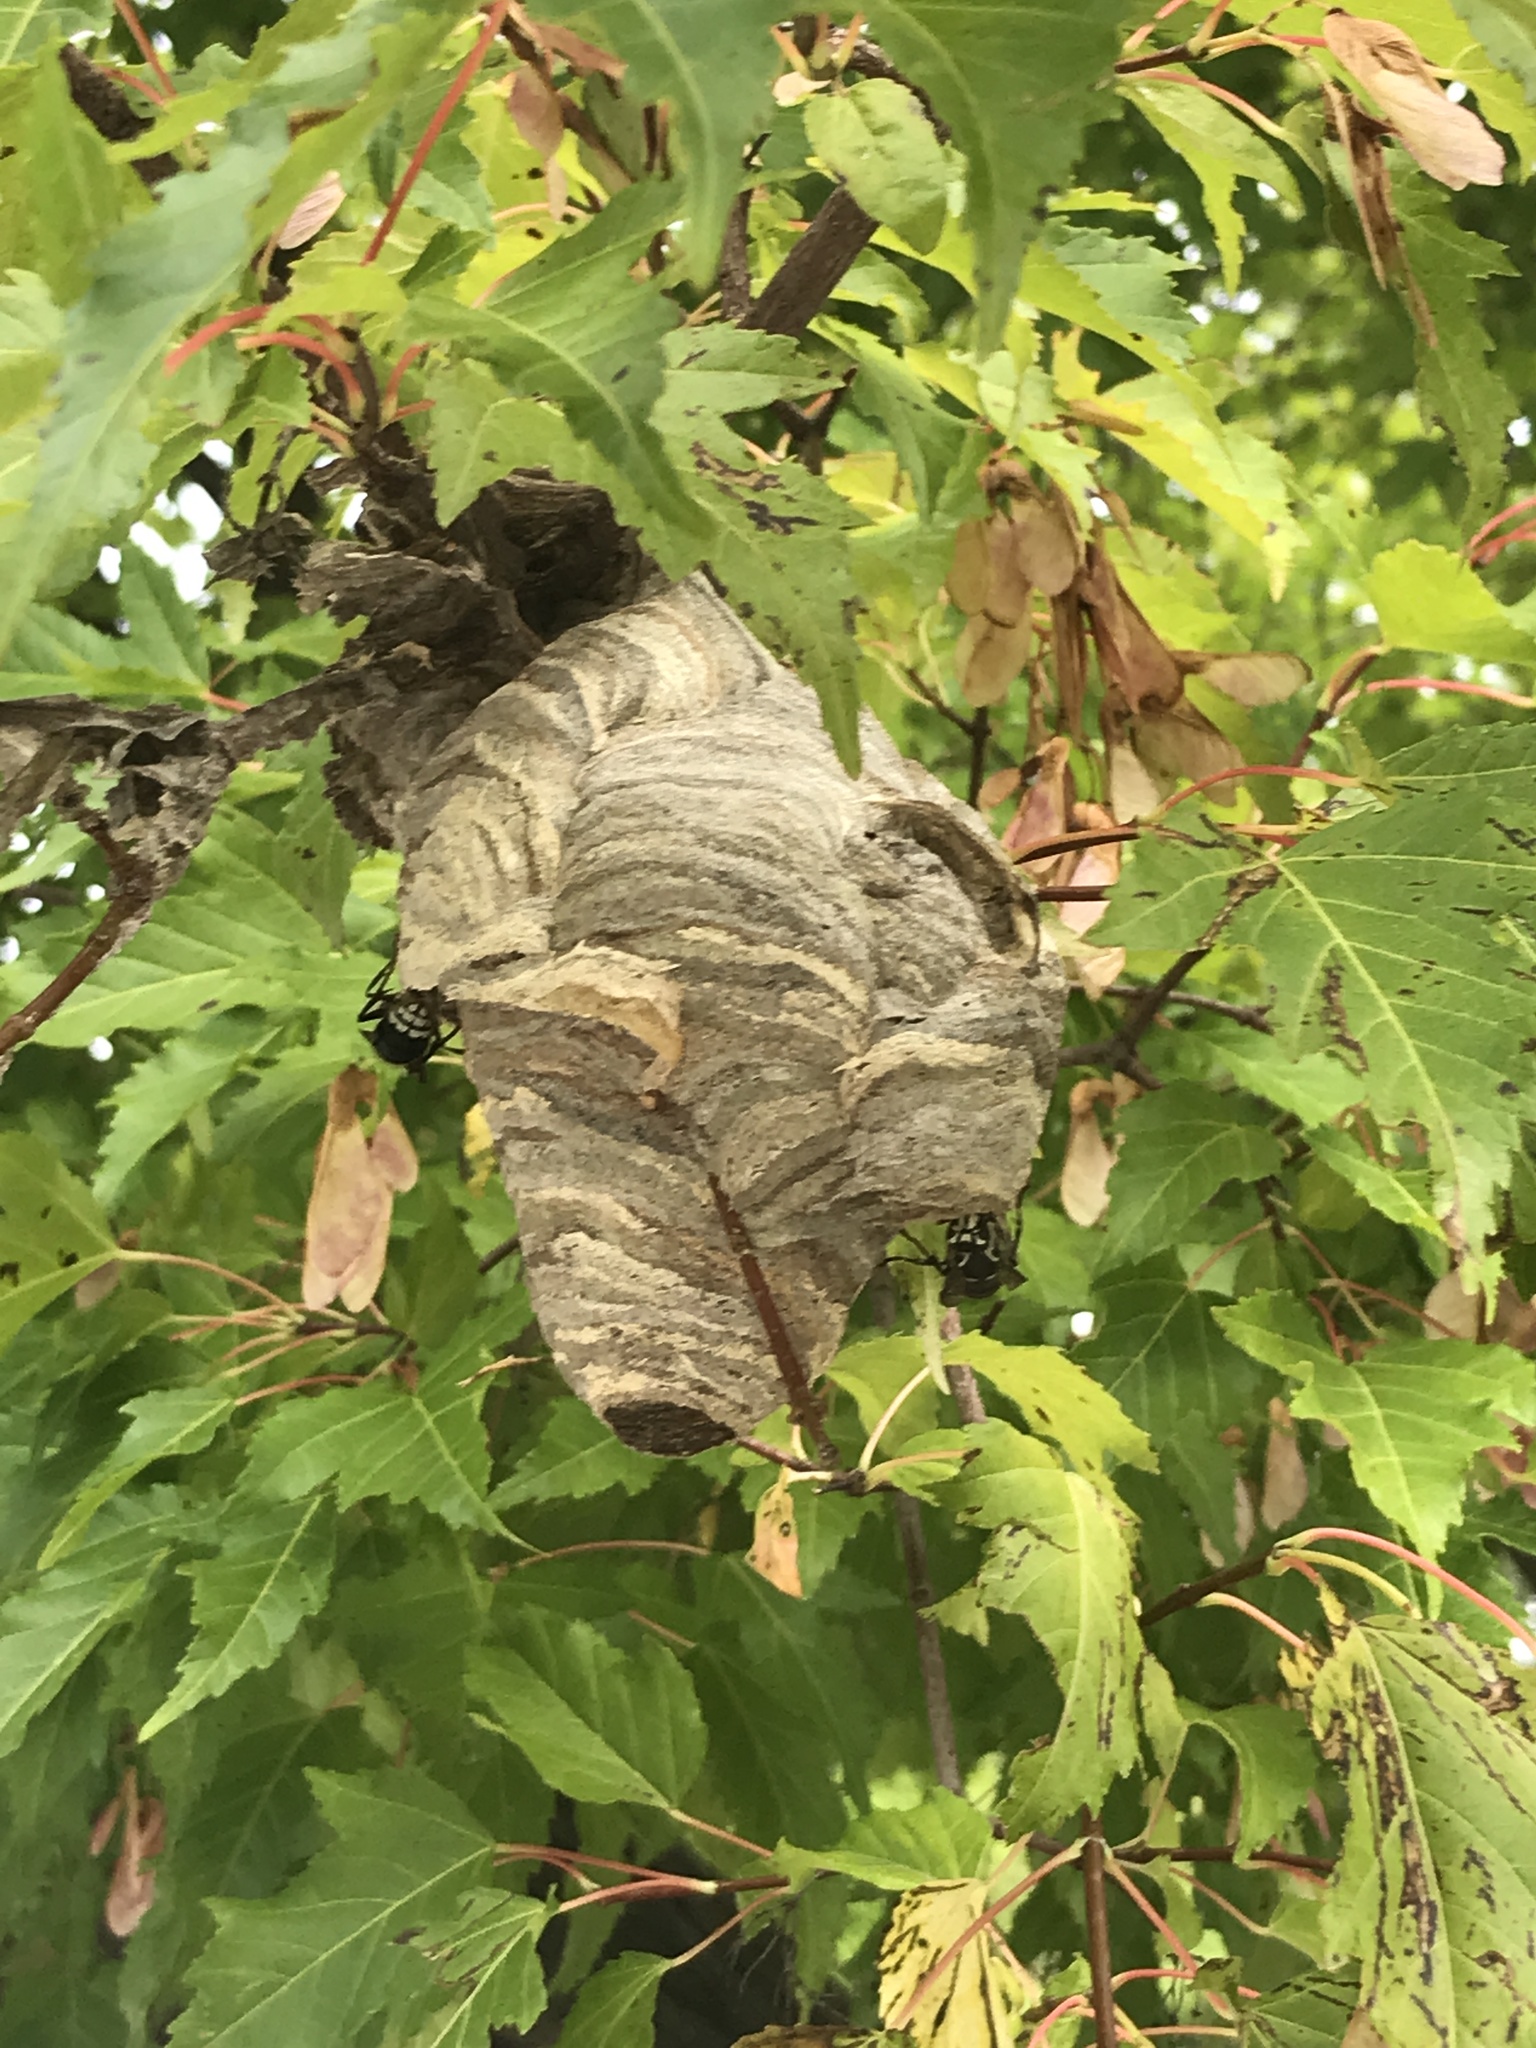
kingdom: Animalia
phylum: Arthropoda
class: Insecta
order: Hymenoptera
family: Vespidae
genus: Dolichovespula
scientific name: Dolichovespula maculata
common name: Bald-faced hornet
